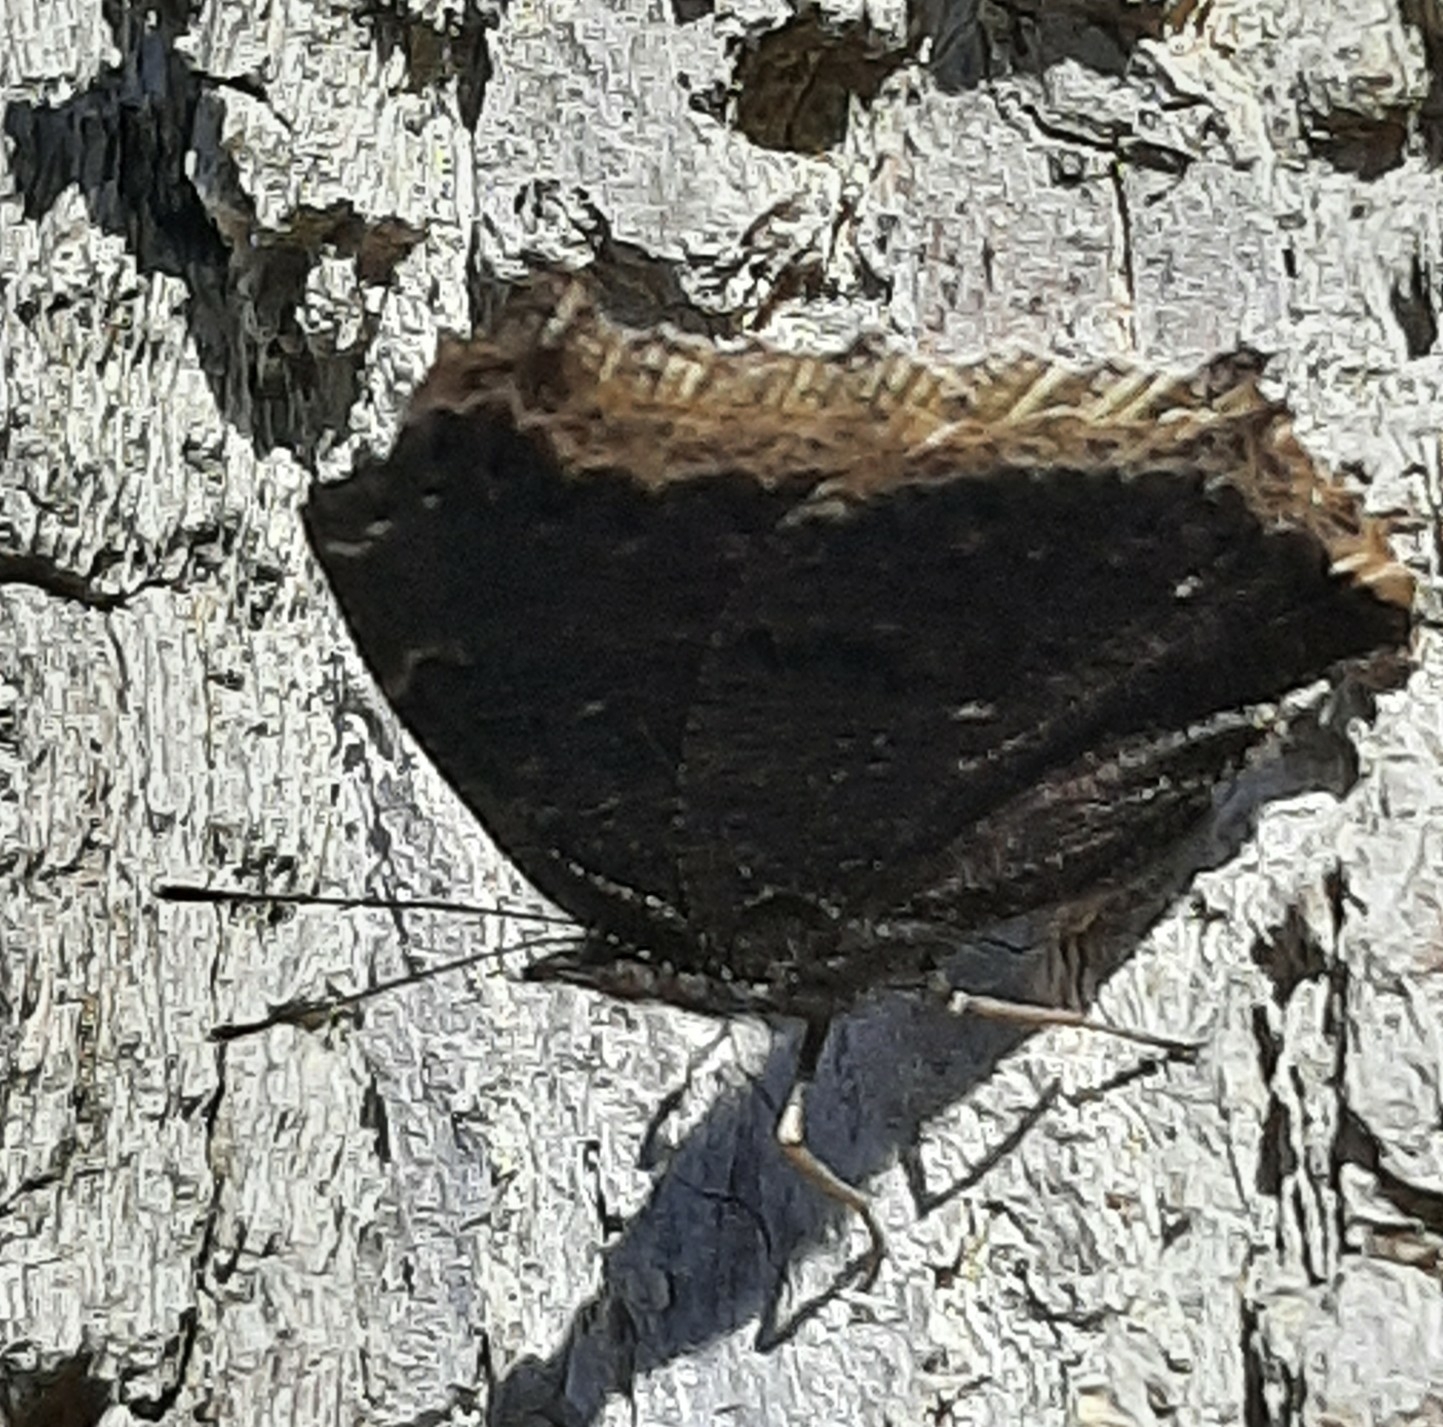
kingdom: Animalia
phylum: Arthropoda
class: Insecta
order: Lepidoptera
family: Nymphalidae
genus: Nymphalis
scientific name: Nymphalis antiopa
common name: Camberwell beauty
